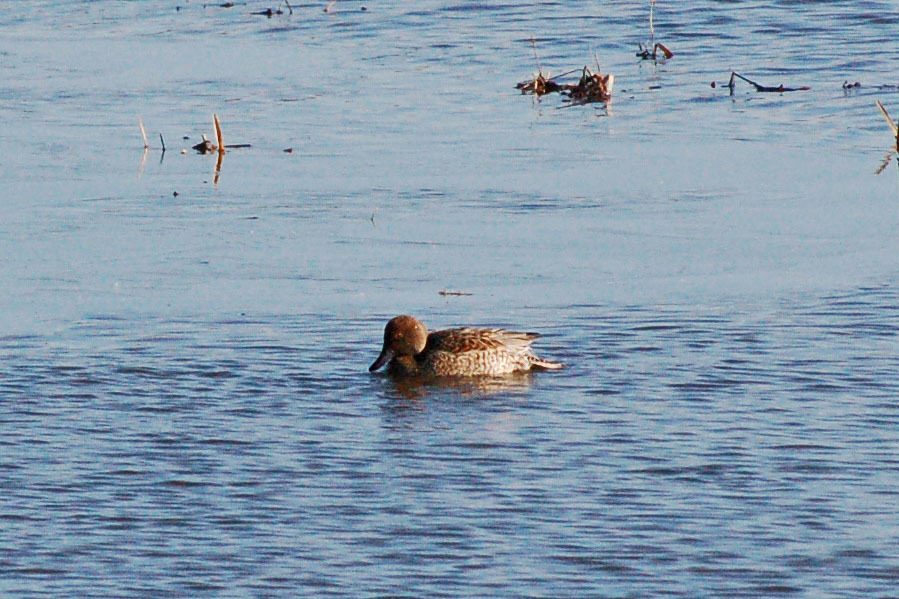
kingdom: Animalia
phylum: Chordata
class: Aves
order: Anseriformes
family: Anatidae
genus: Anas
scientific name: Anas acuta
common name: Northern pintail
